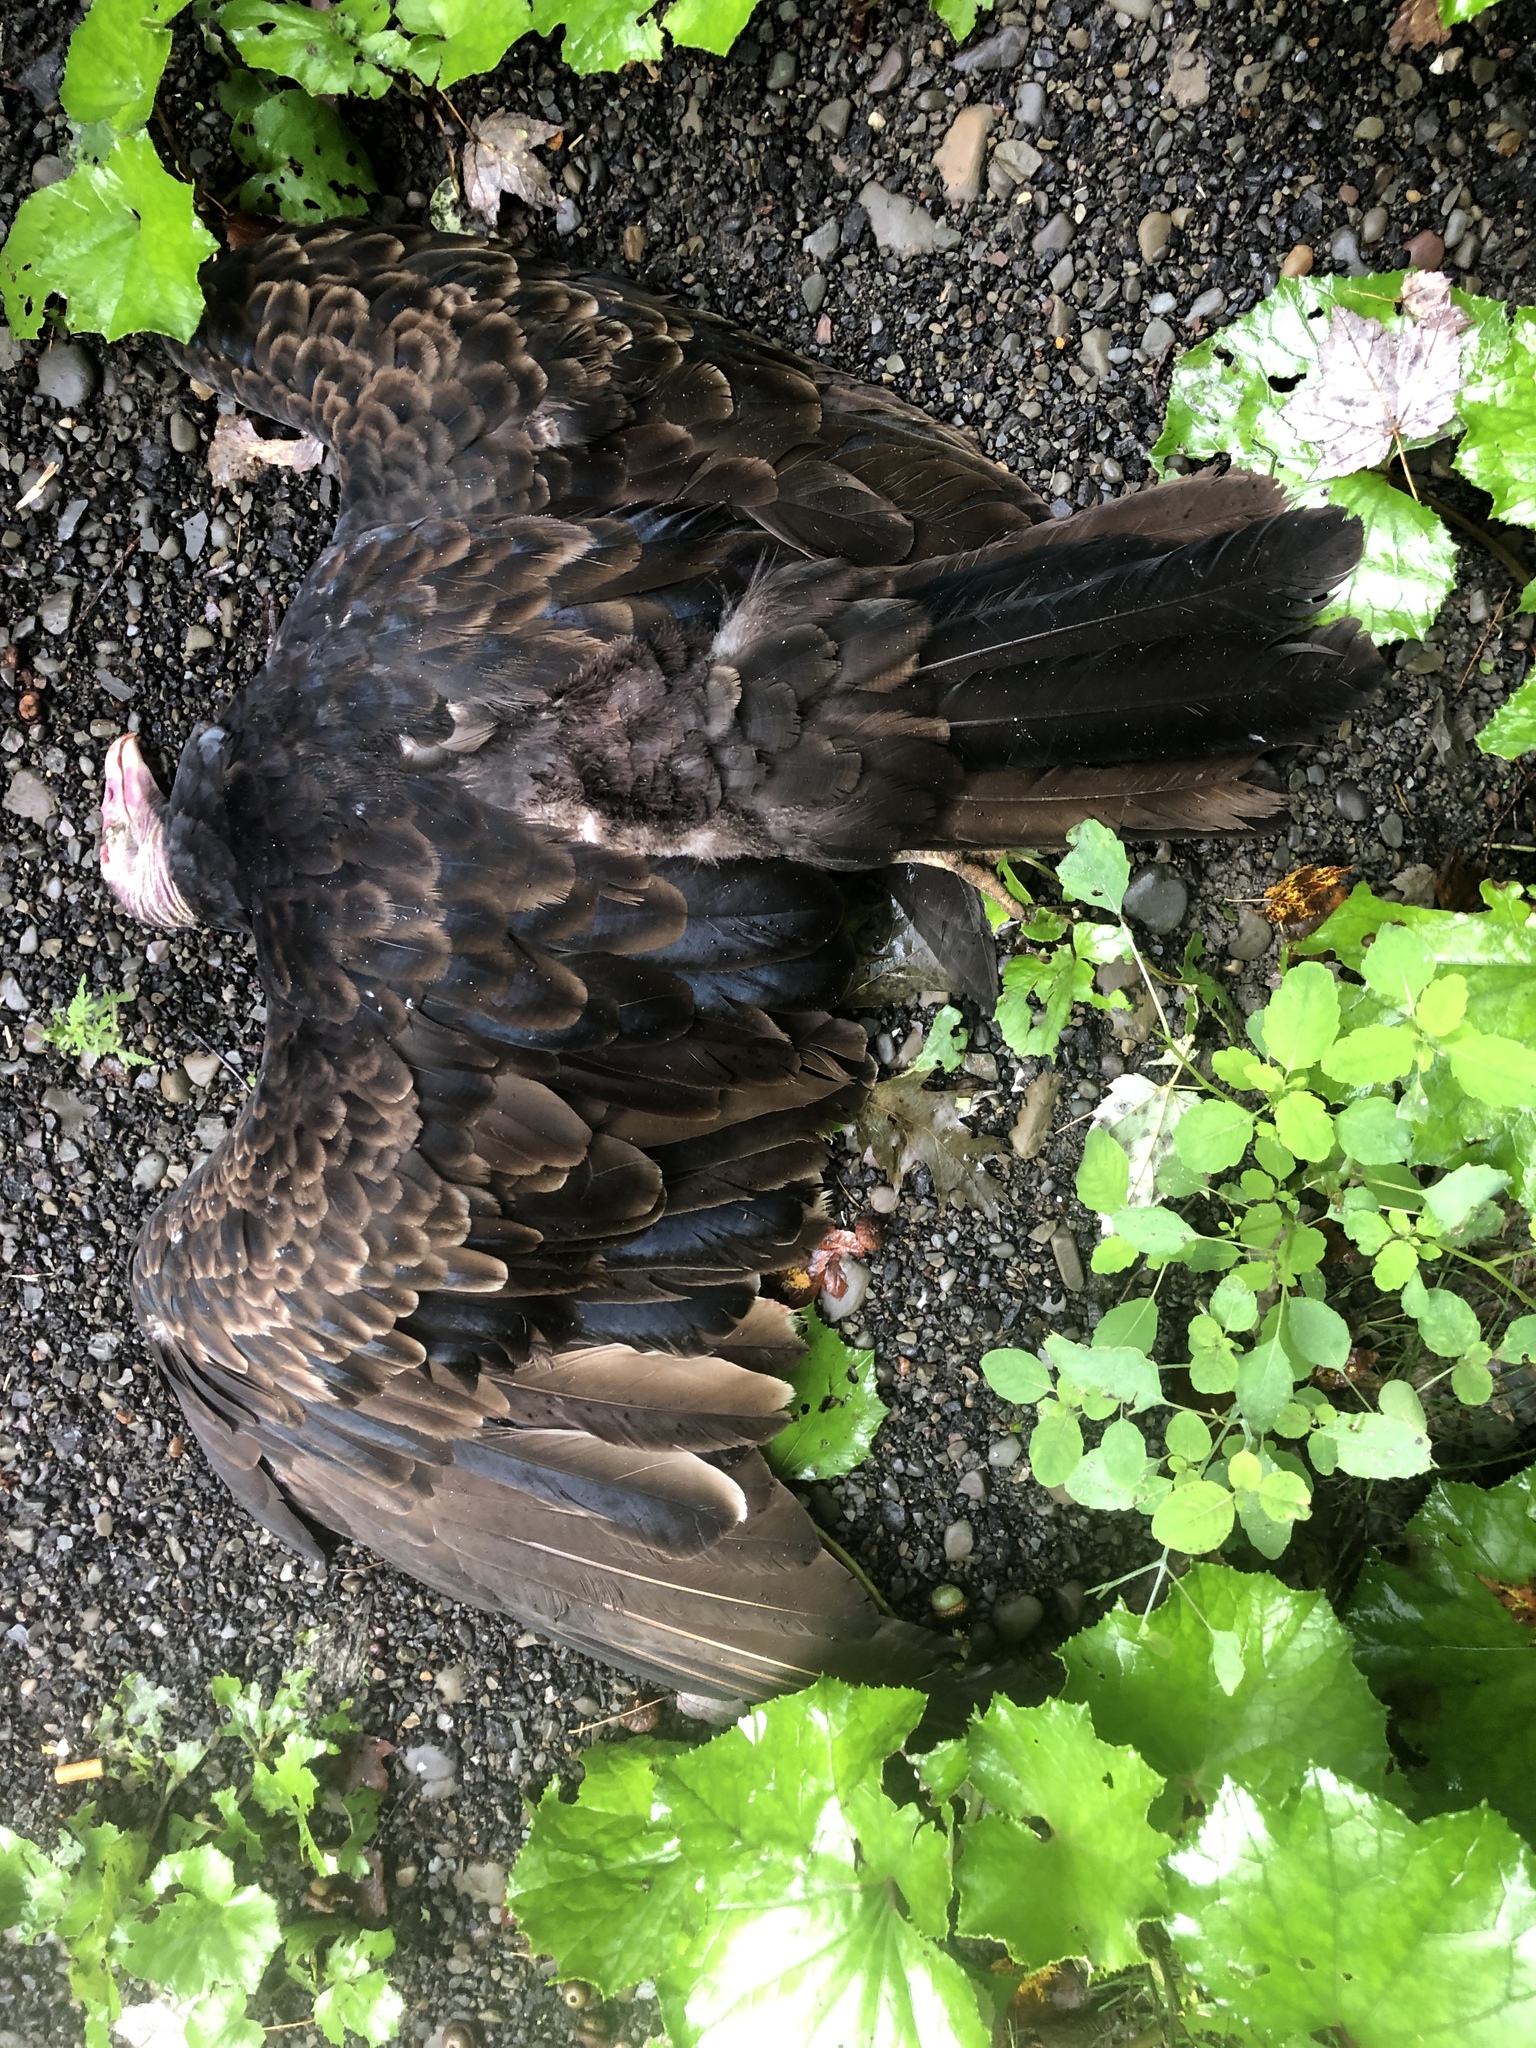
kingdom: Animalia
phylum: Chordata
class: Aves
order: Accipitriformes
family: Cathartidae
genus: Cathartes
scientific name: Cathartes aura
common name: Turkey vulture
